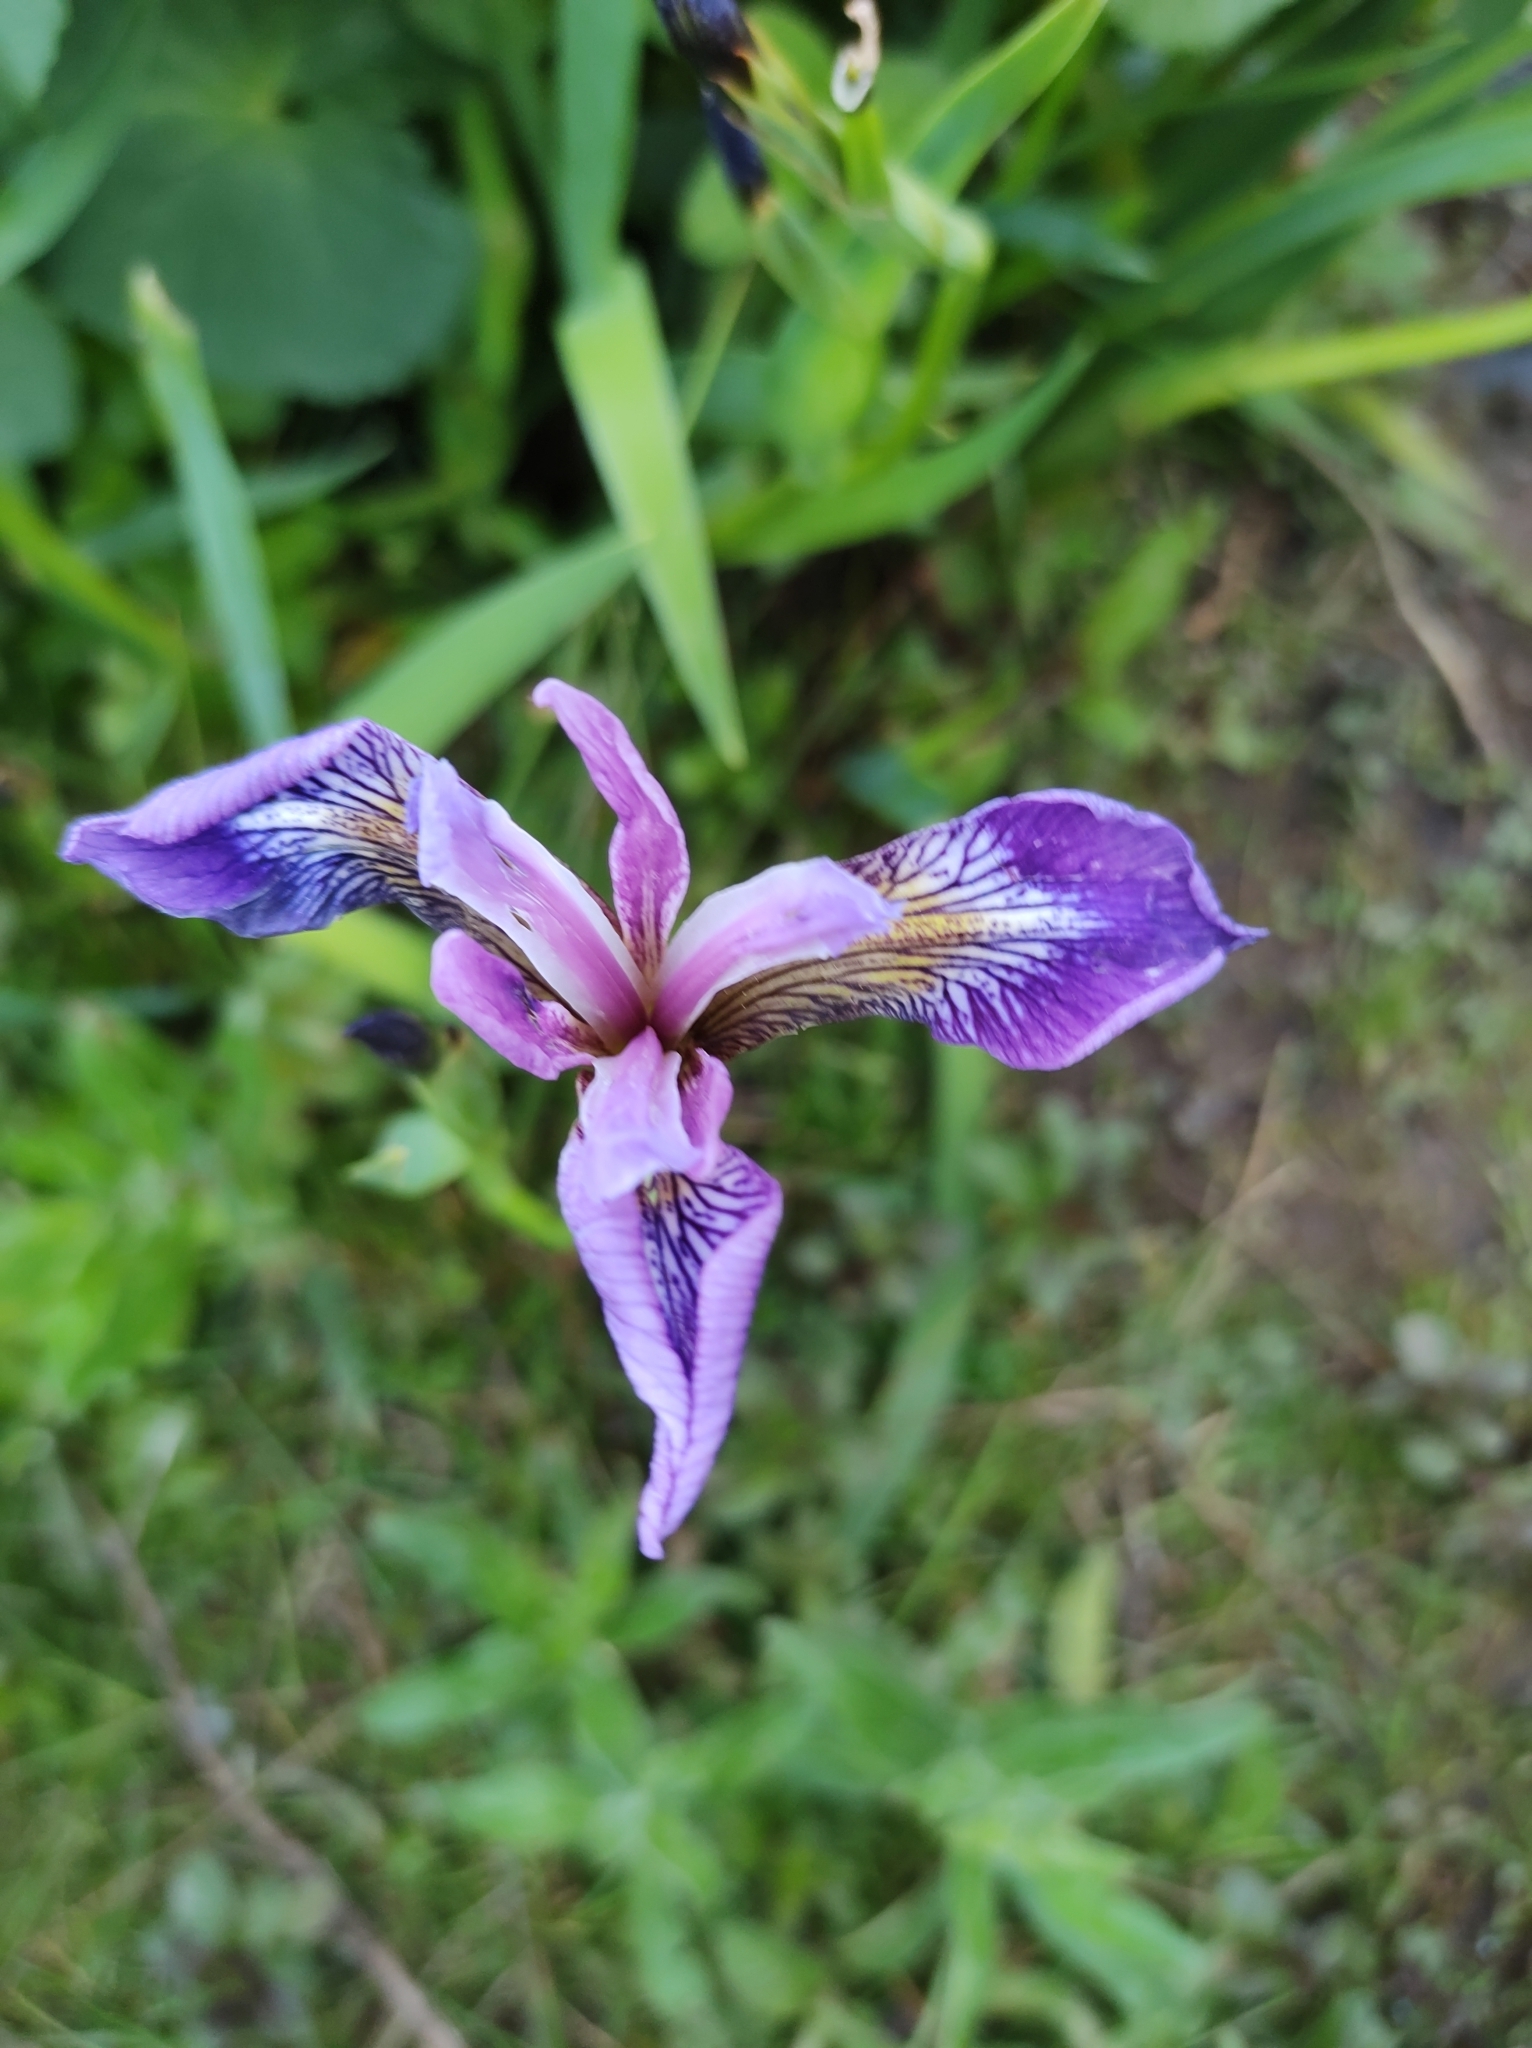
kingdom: Plantae
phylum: Tracheophyta
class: Liliopsida
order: Asparagales
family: Iridaceae
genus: Iris
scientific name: Iris versicolor
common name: Purple iris
